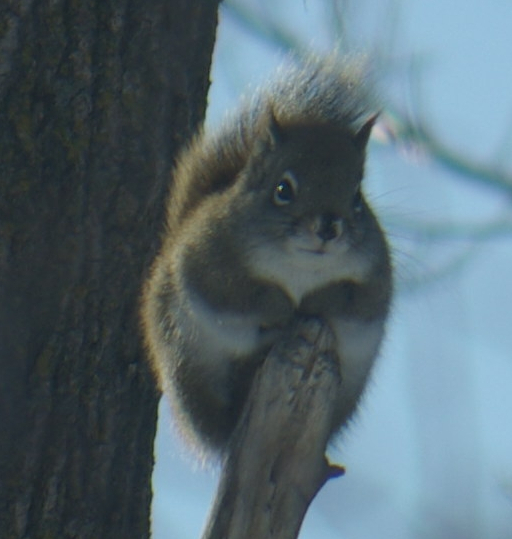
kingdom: Animalia
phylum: Chordata
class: Mammalia
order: Rodentia
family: Sciuridae
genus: Tamiasciurus
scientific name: Tamiasciurus hudsonicus
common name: Red squirrel
